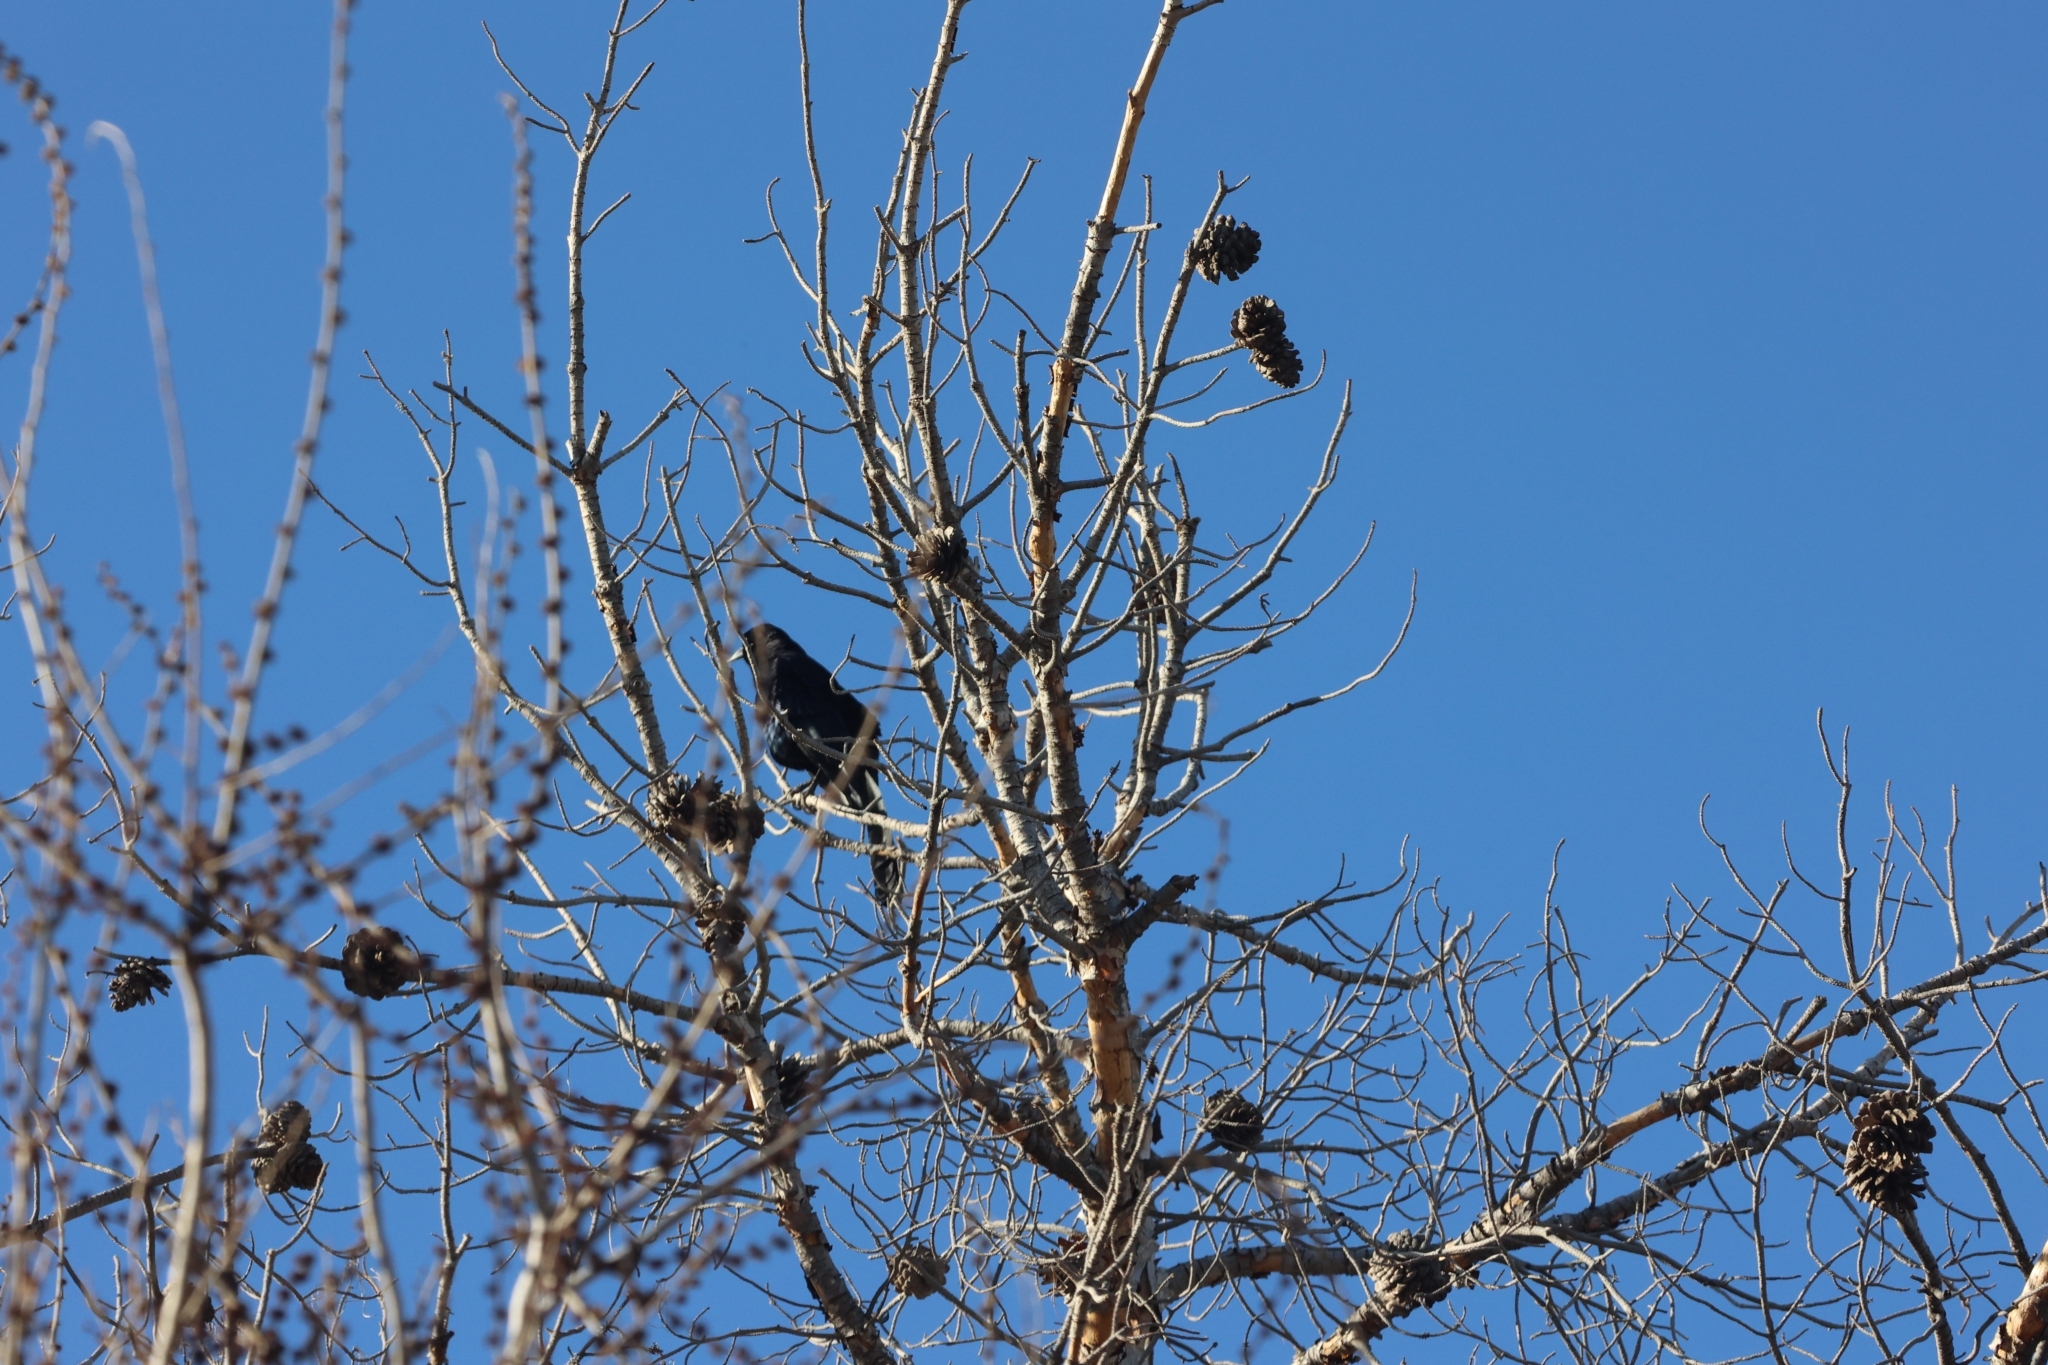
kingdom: Animalia
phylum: Chordata
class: Aves
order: Passeriformes
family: Icteridae
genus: Quiscalus
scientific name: Quiscalus mexicanus
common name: Great-tailed grackle
